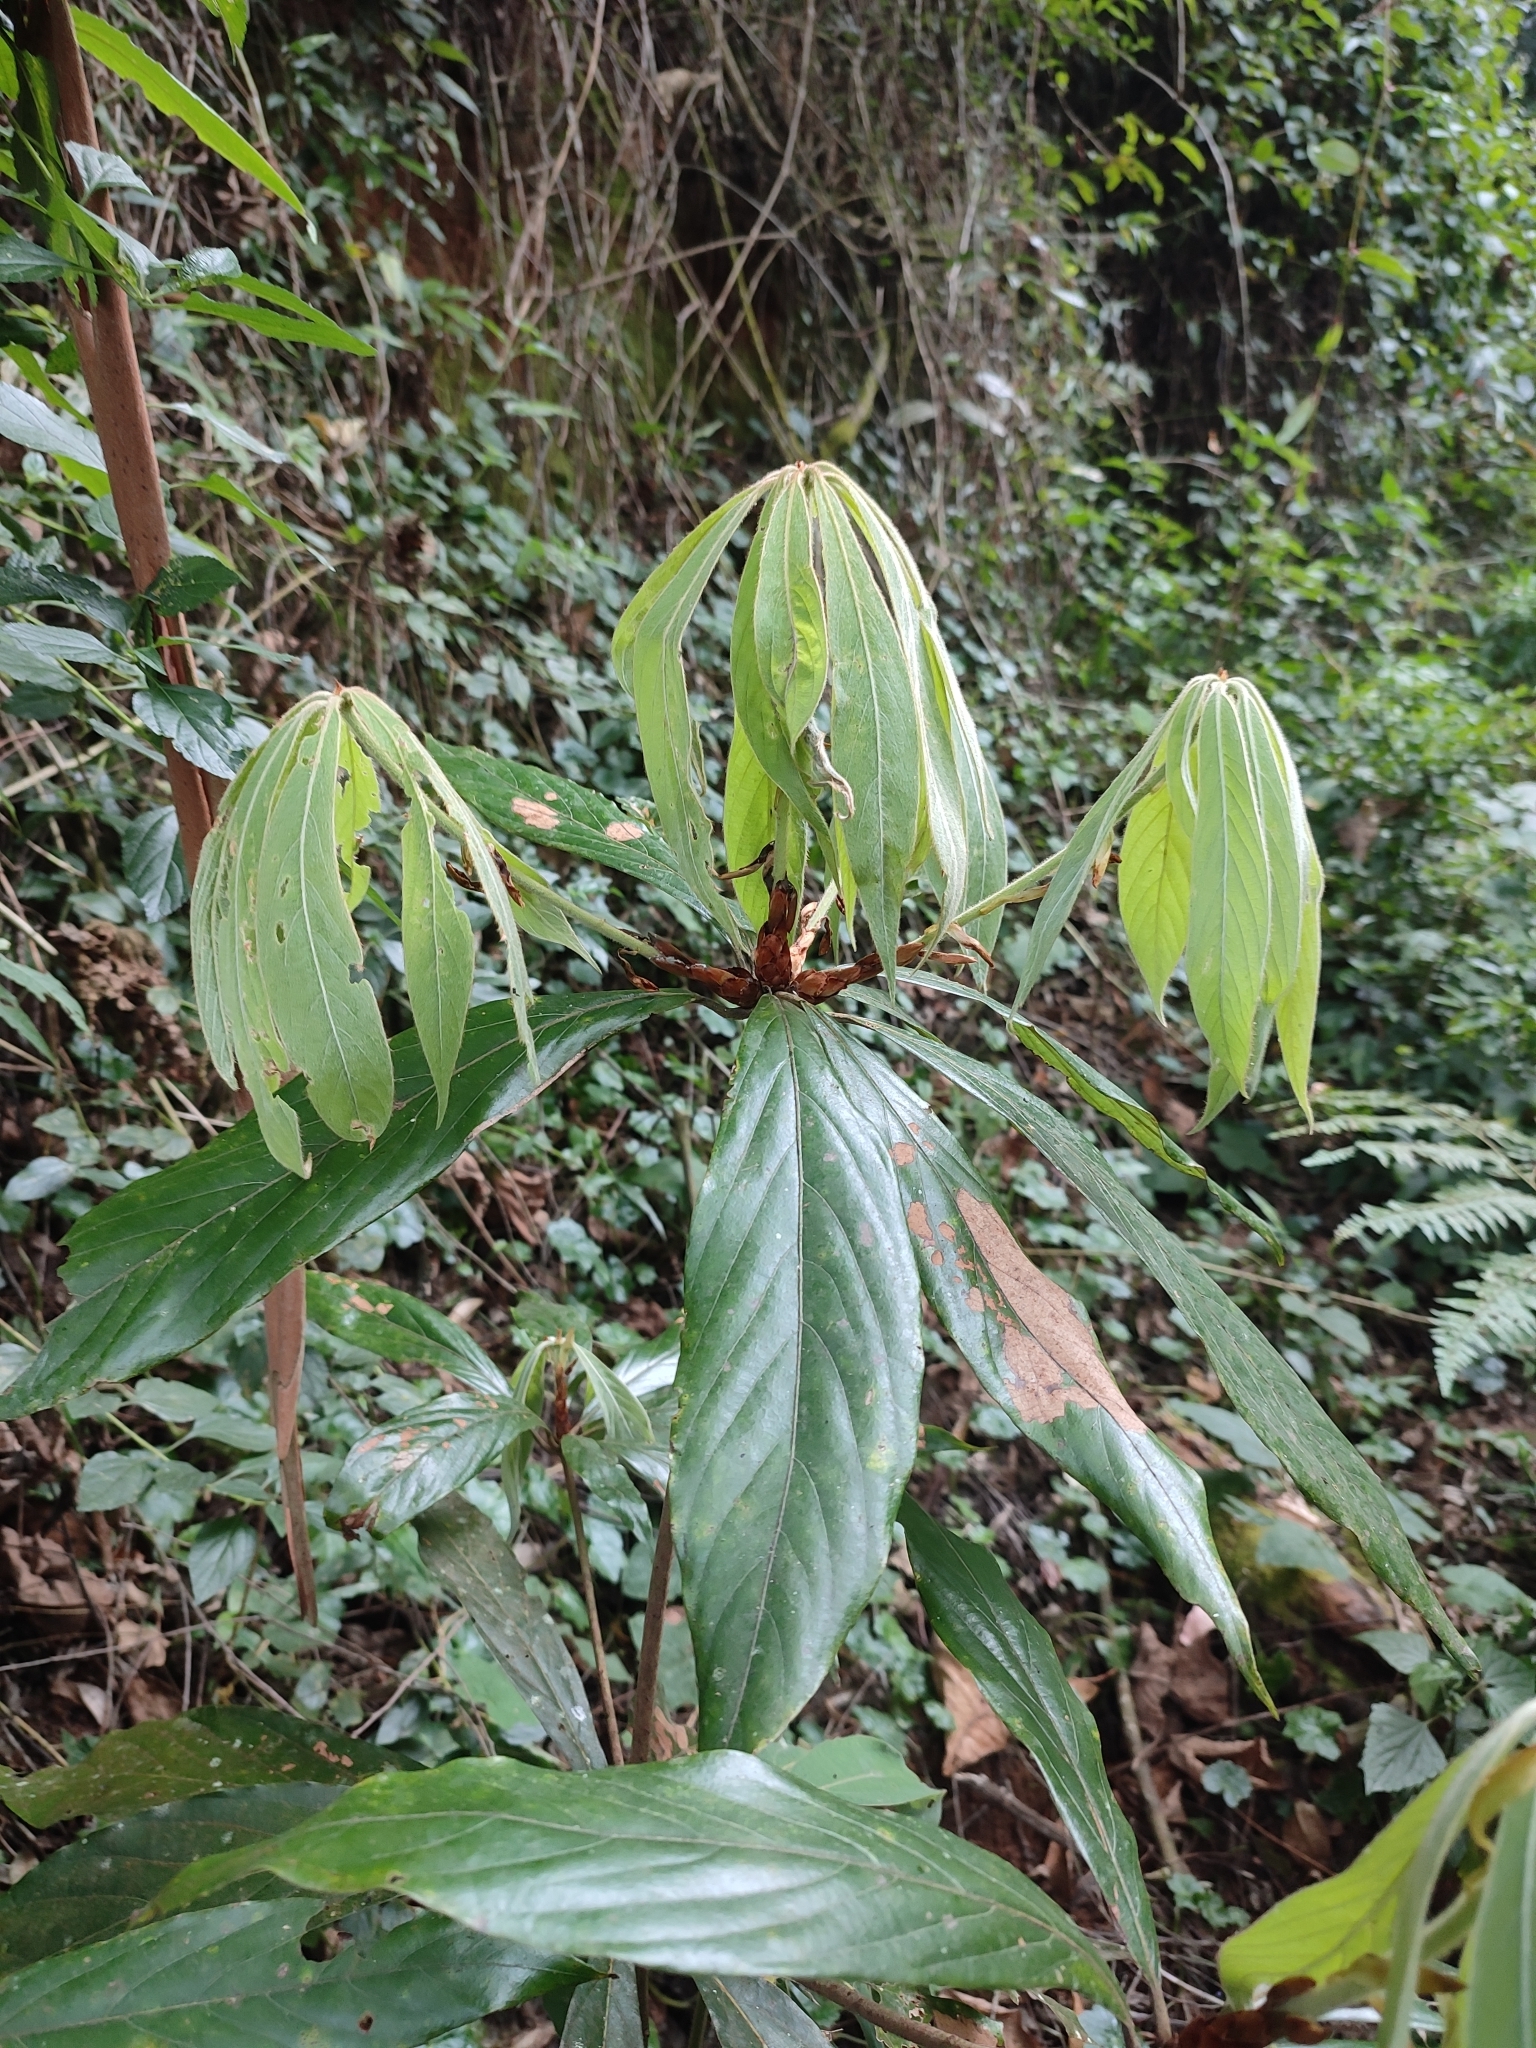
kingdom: Plantae
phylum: Tracheophyta
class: Magnoliopsida
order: Laurales
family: Lauraceae
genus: Actinodaphne
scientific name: Actinodaphne bourdillonii
